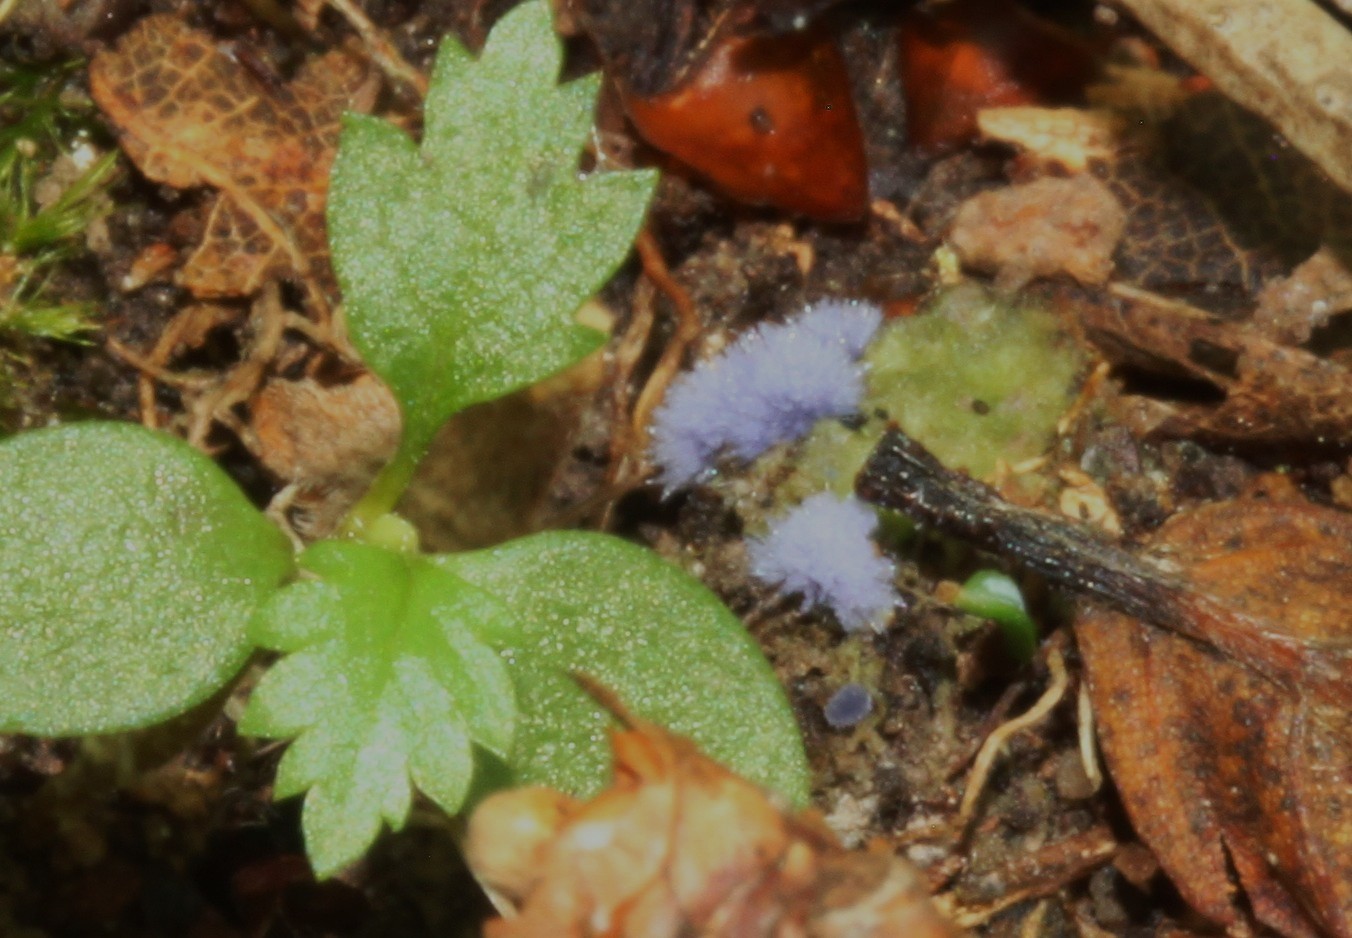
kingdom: Fungi
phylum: Ascomycota
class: Pezizomycetes
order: Pezizales
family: Pezizaceae
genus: Chromelosporiopsis
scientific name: Chromelosporiopsis coerulescens
